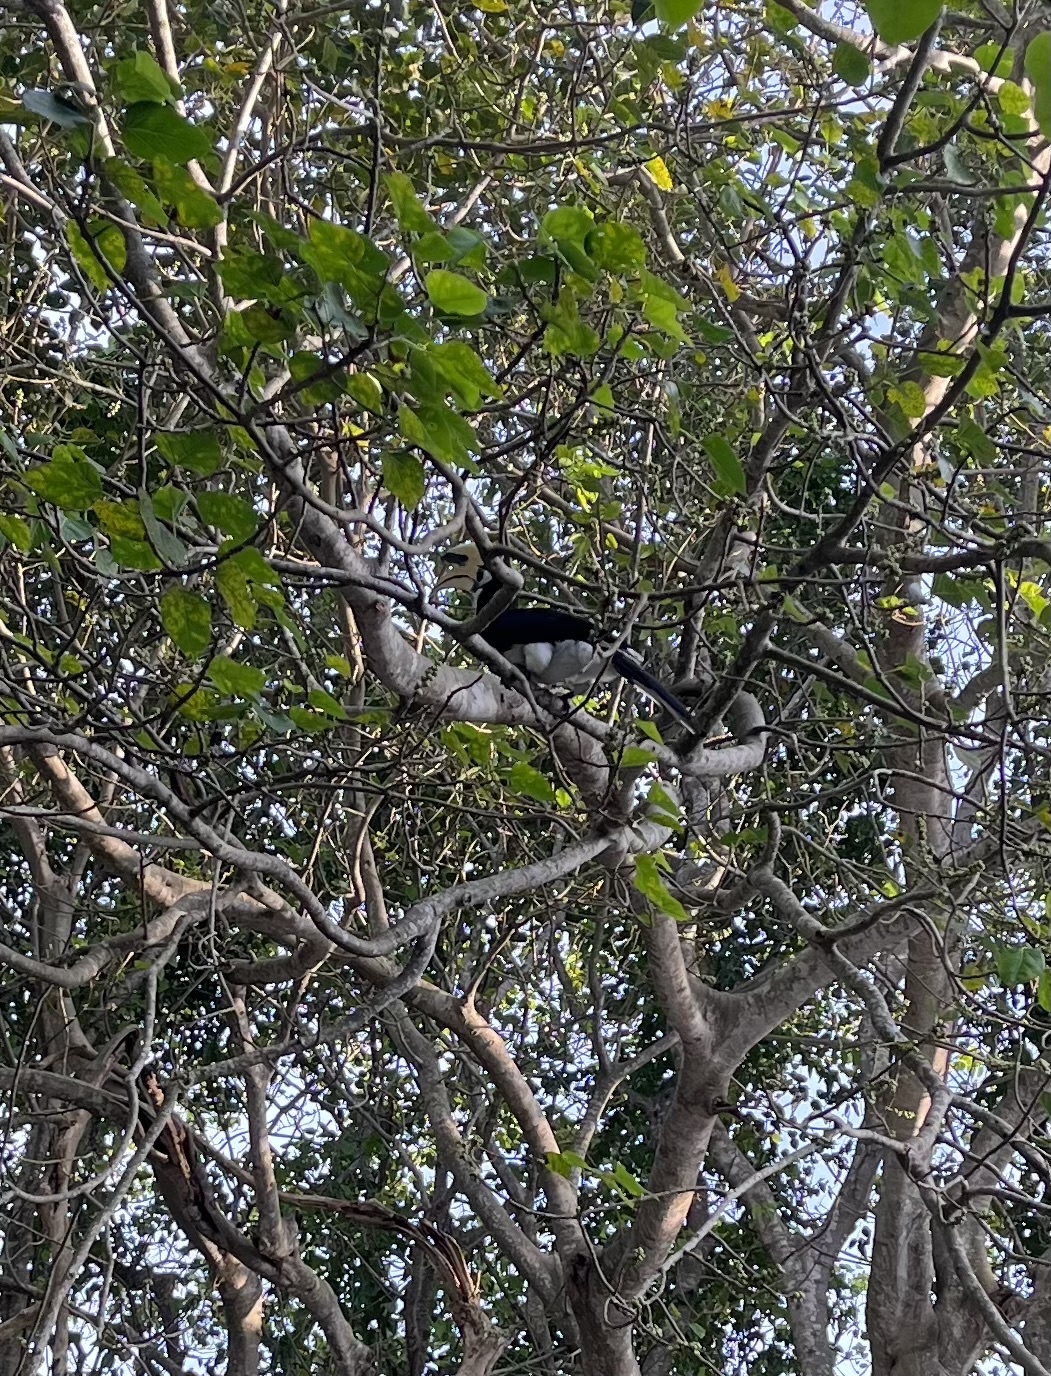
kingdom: Animalia
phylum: Chordata
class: Aves
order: Bucerotiformes
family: Bucerotidae
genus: Anthracoceros
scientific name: Anthracoceros albirostris
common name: Oriental pied-hornbill
